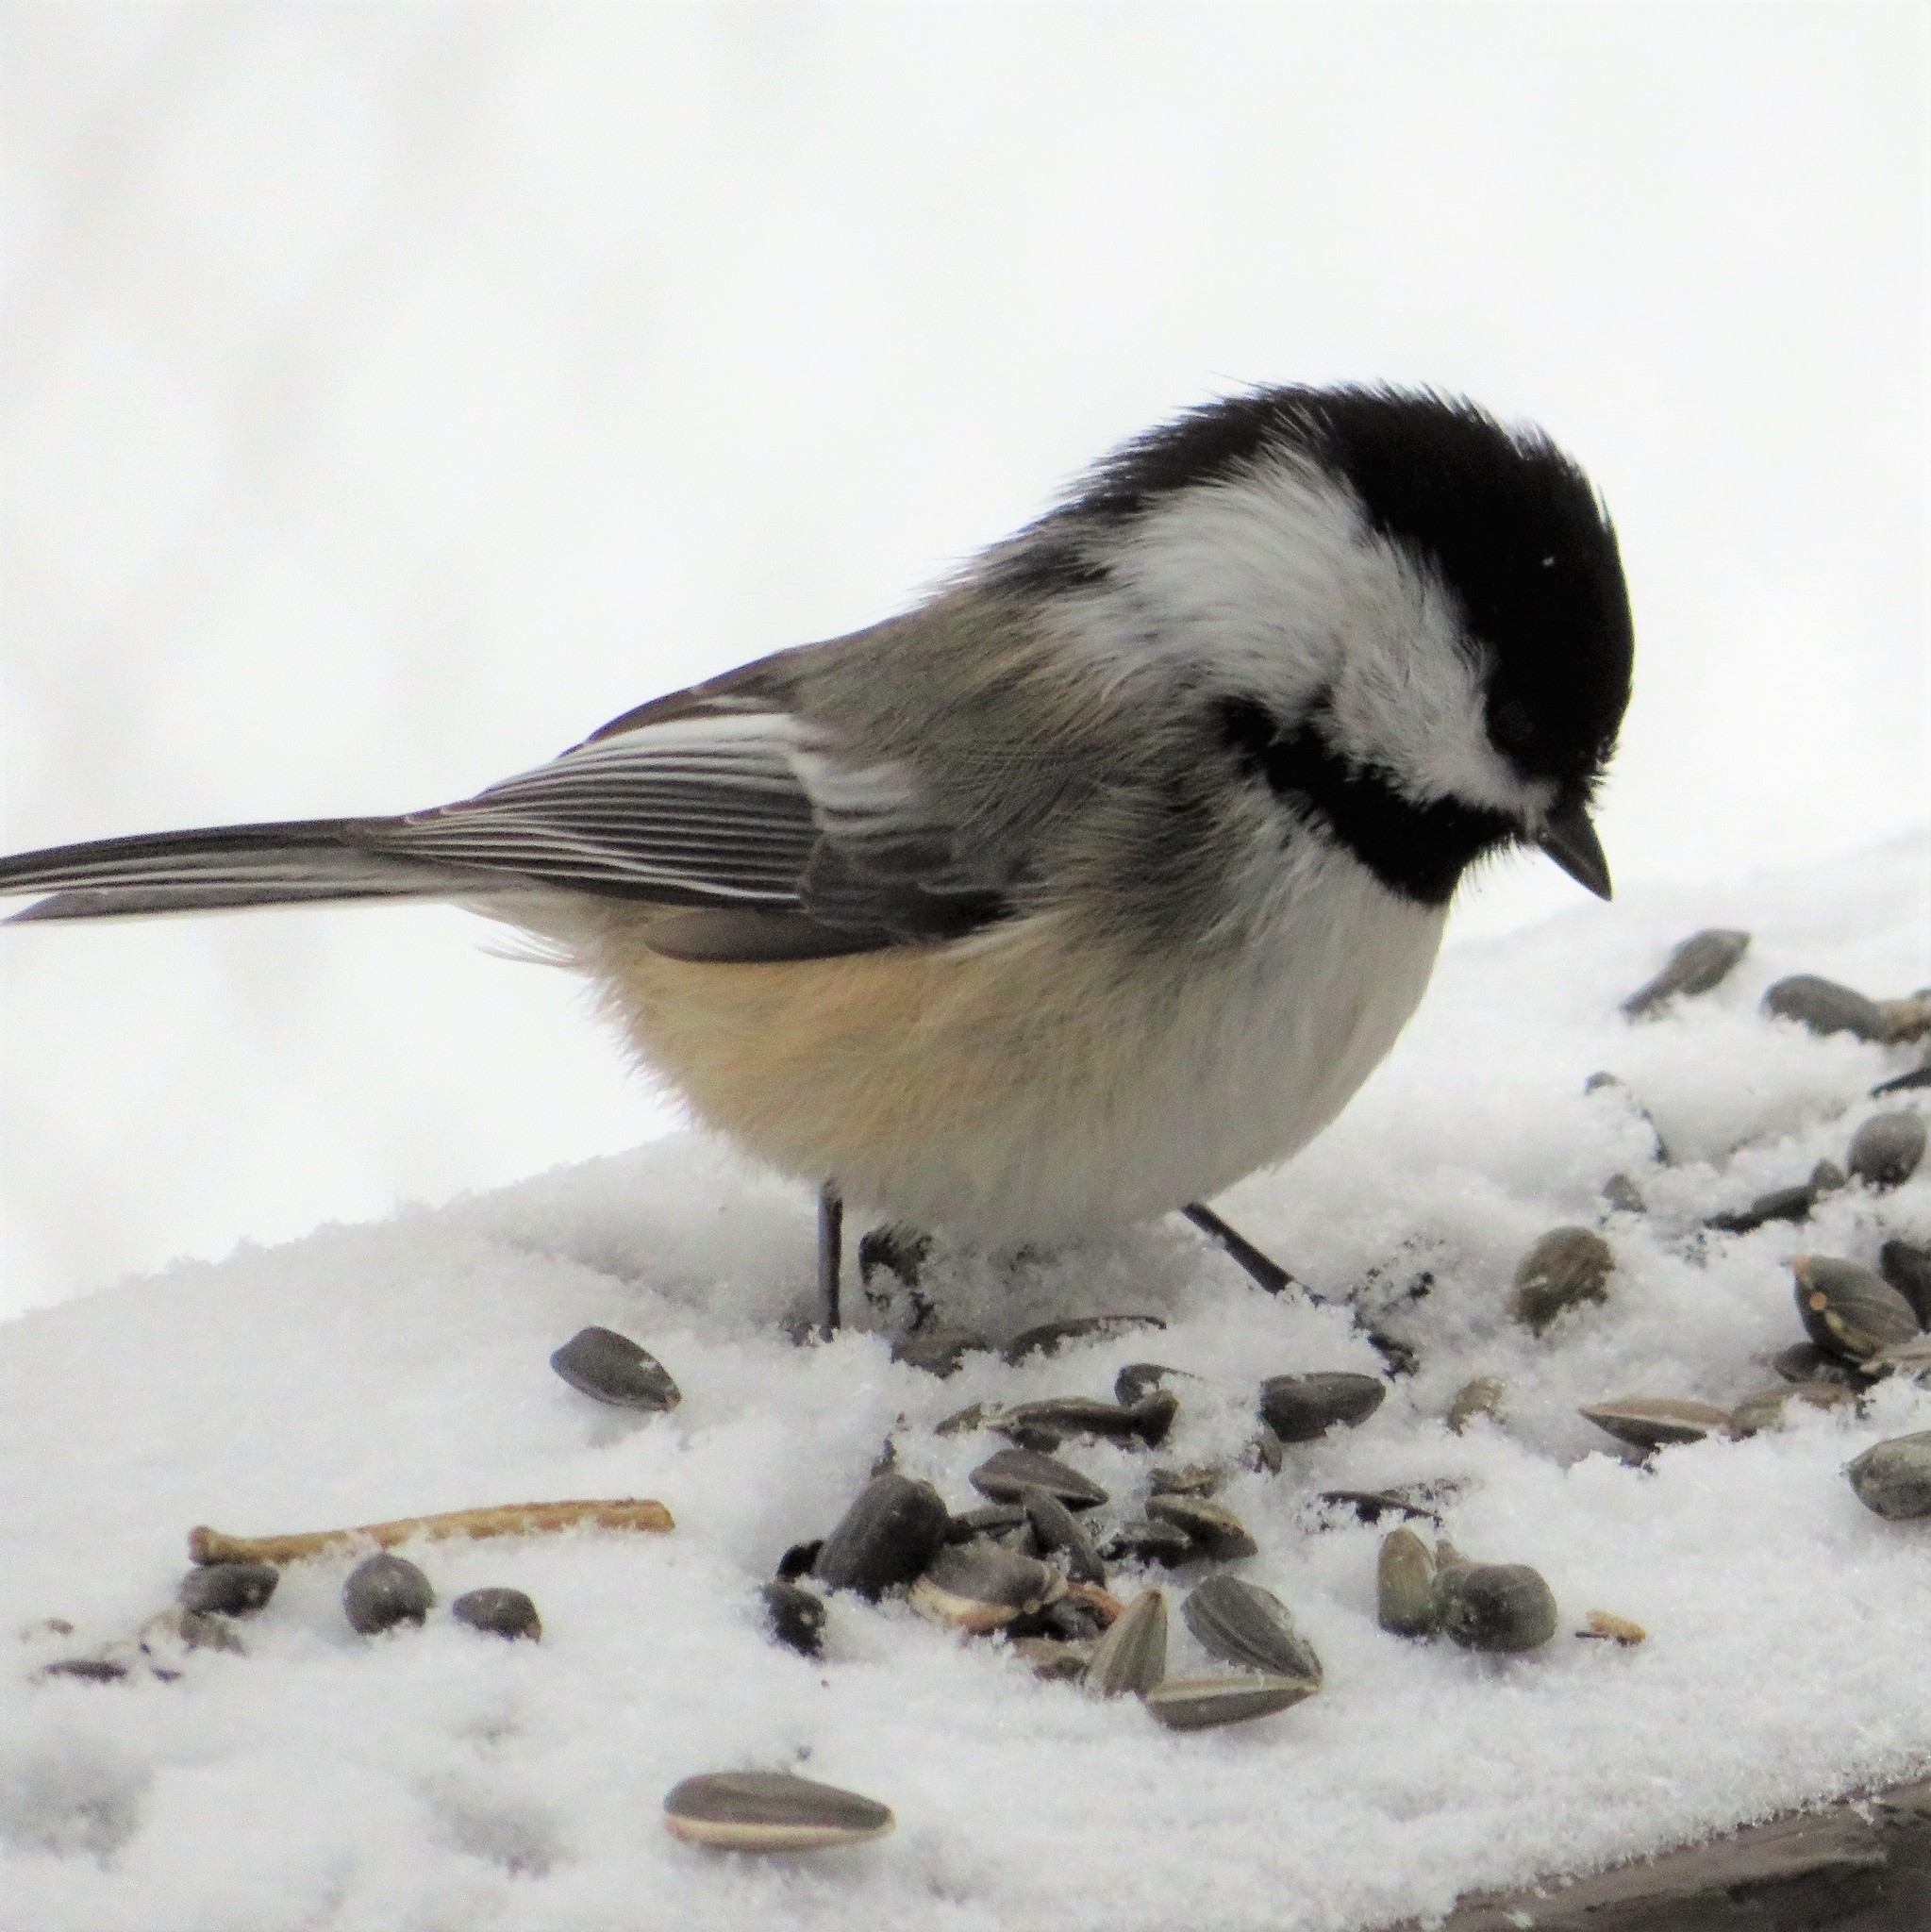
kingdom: Animalia
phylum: Chordata
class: Aves
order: Passeriformes
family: Paridae
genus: Poecile
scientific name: Poecile atricapillus
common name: Black-capped chickadee
